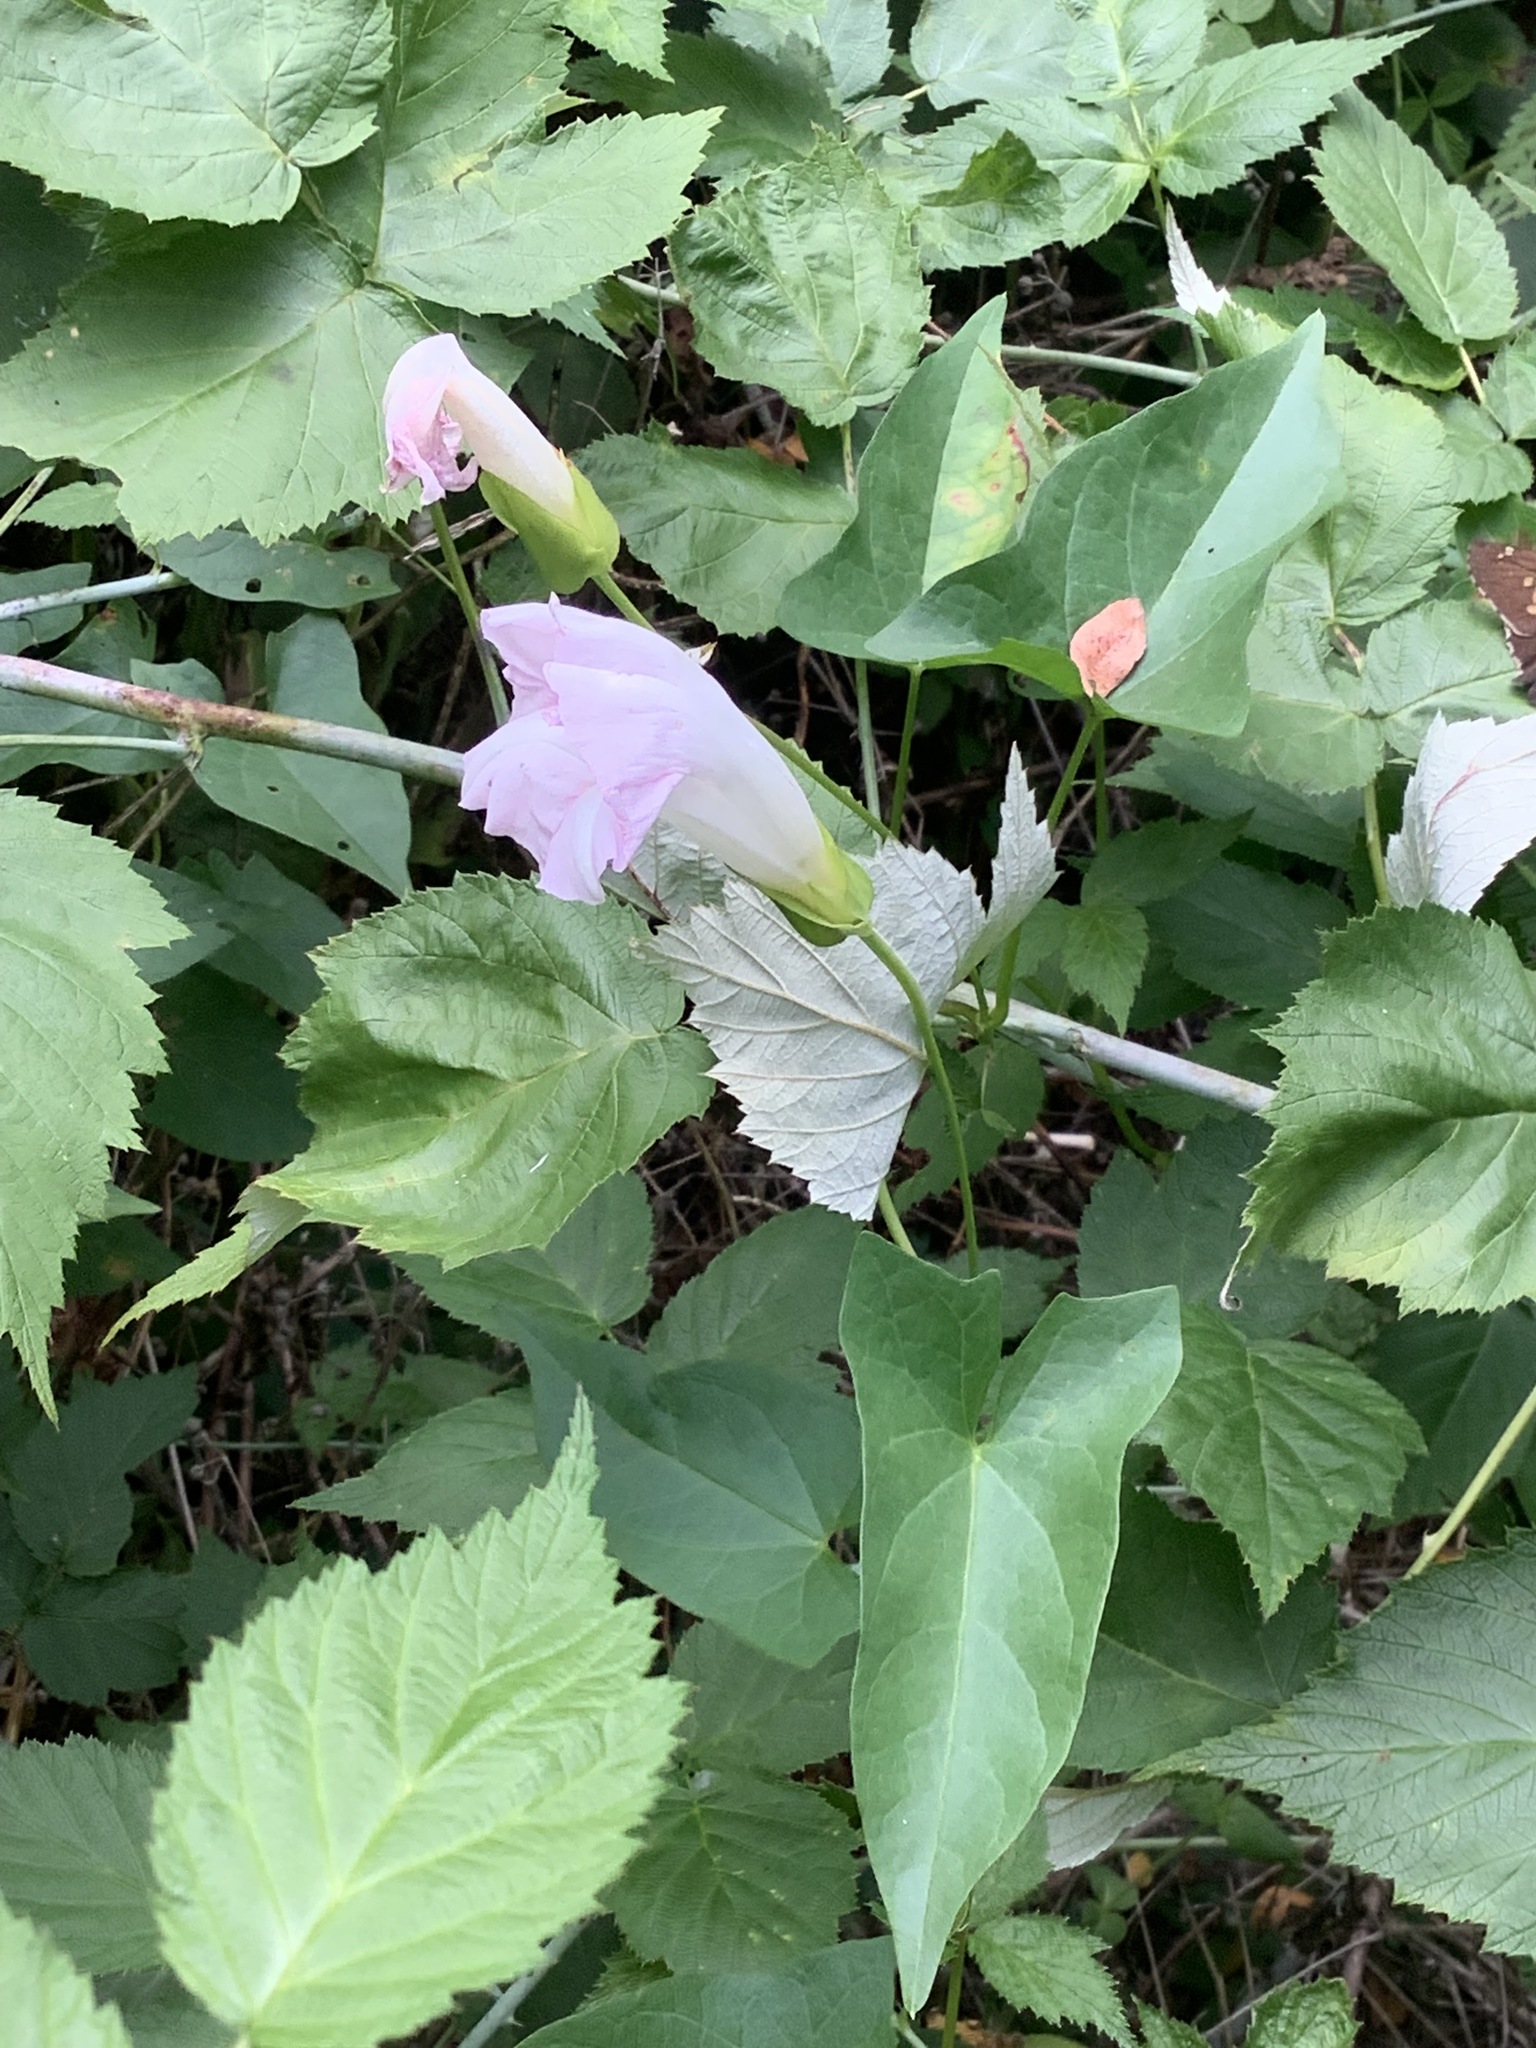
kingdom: Plantae
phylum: Tracheophyta
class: Magnoliopsida
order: Solanales
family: Convolvulaceae
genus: Calystegia
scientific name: Calystegia sepium
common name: Hedge bindweed
